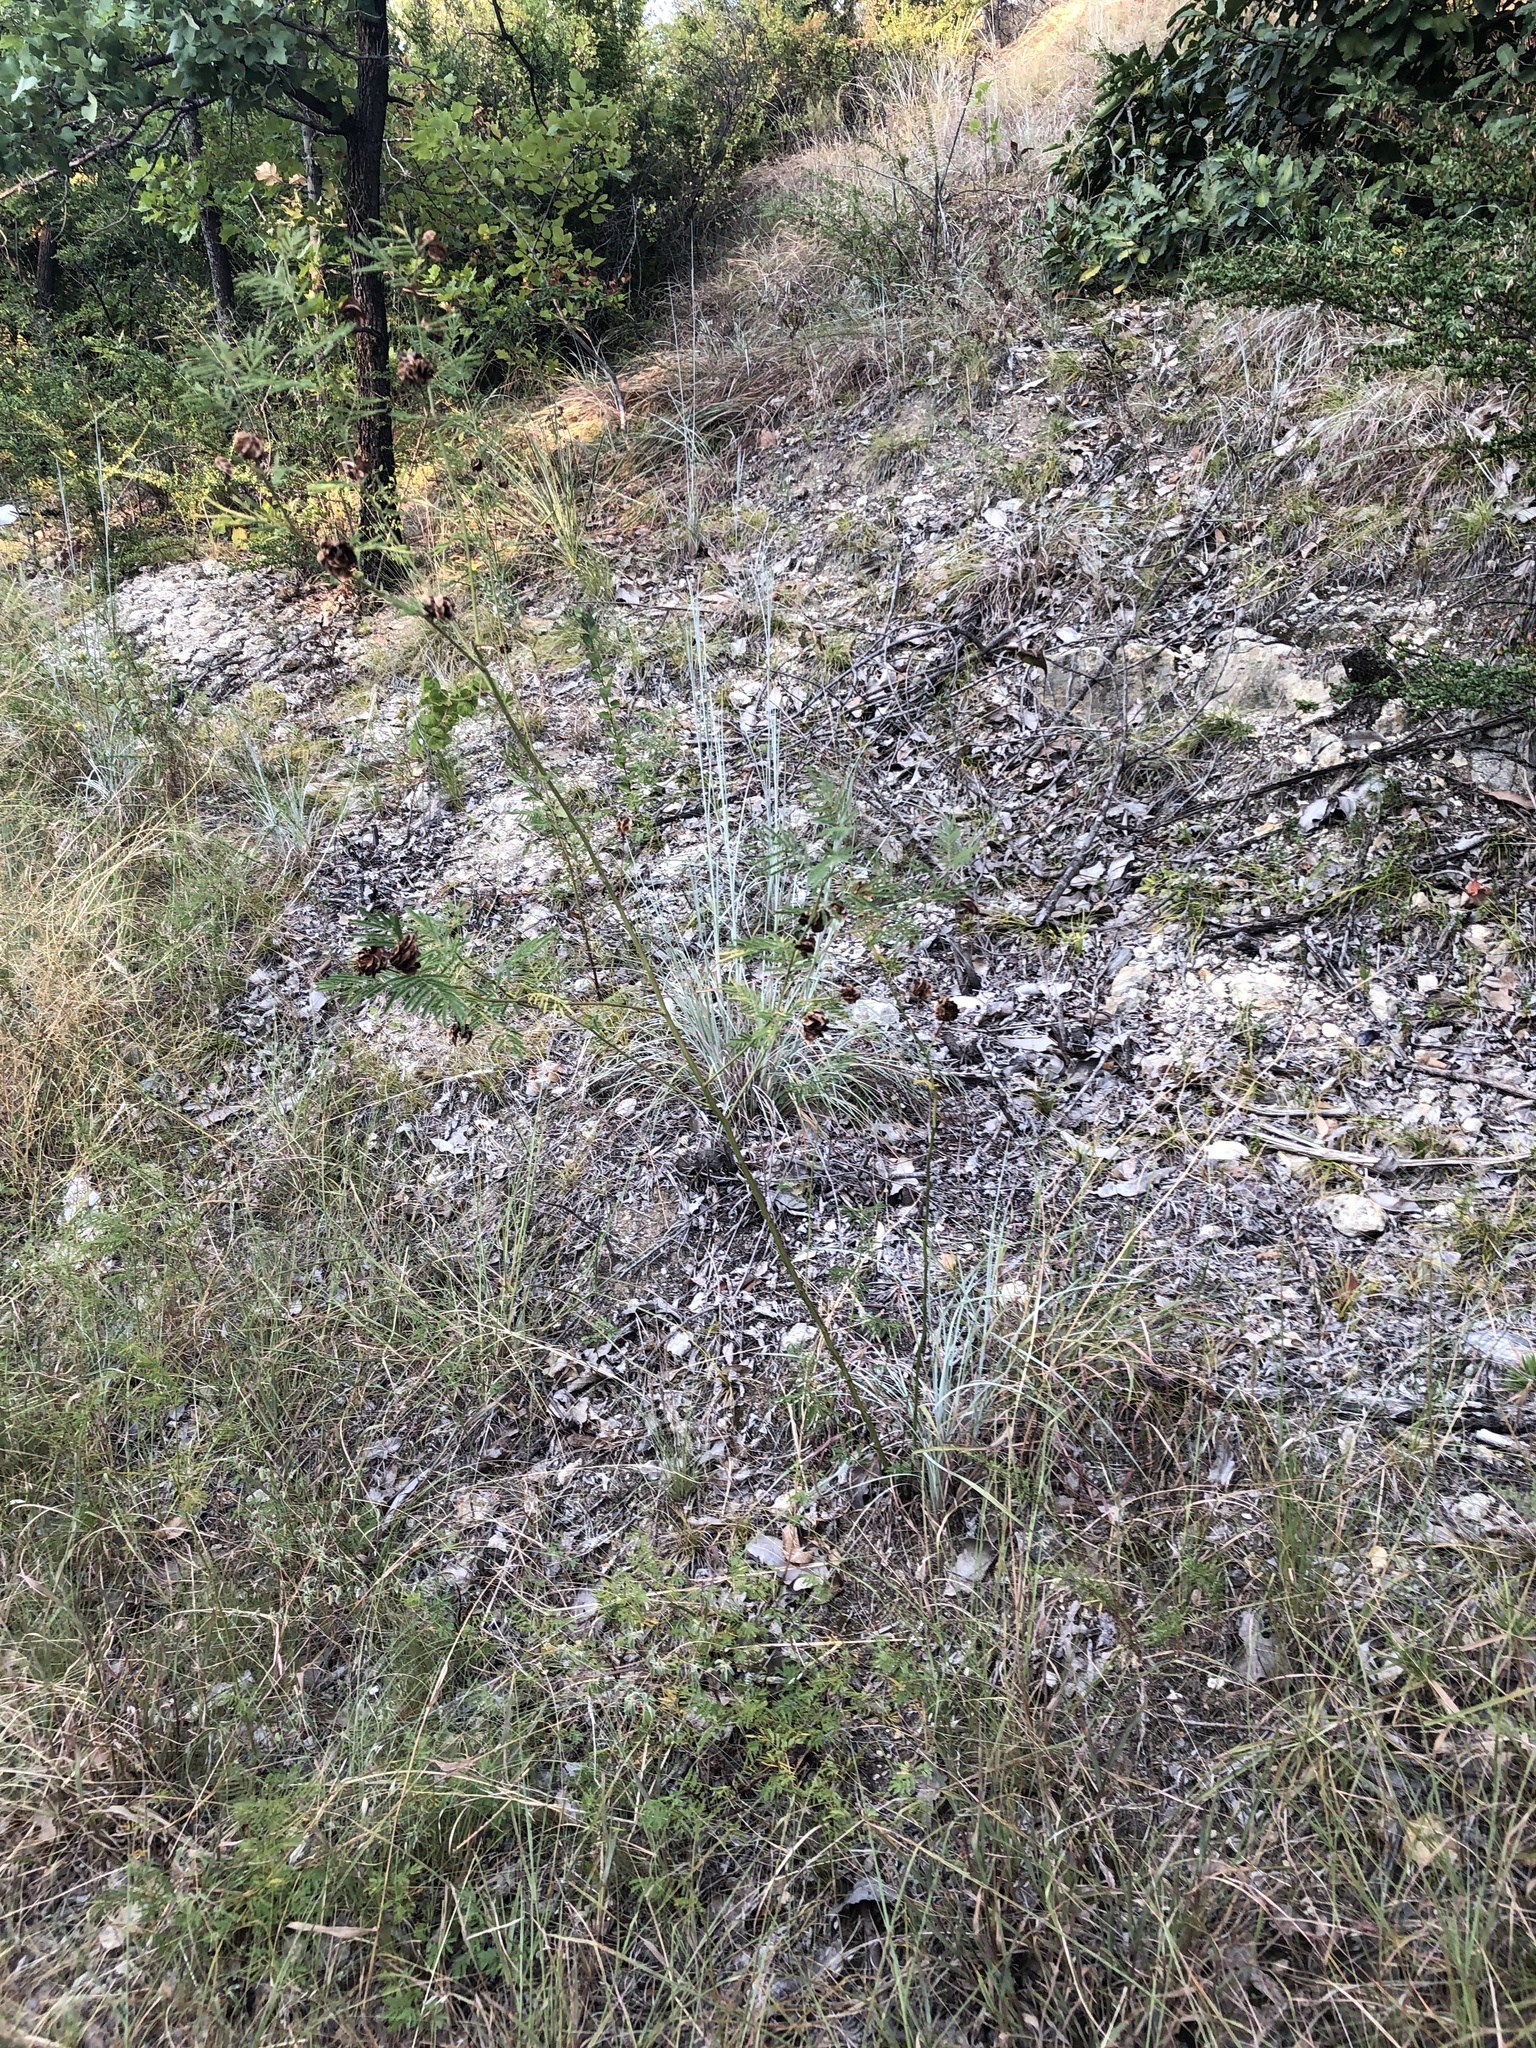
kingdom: Plantae
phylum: Tracheophyta
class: Magnoliopsida
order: Fabales
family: Fabaceae
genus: Desmanthus
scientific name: Desmanthus illinoensis
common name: Illinois bundle-flower
